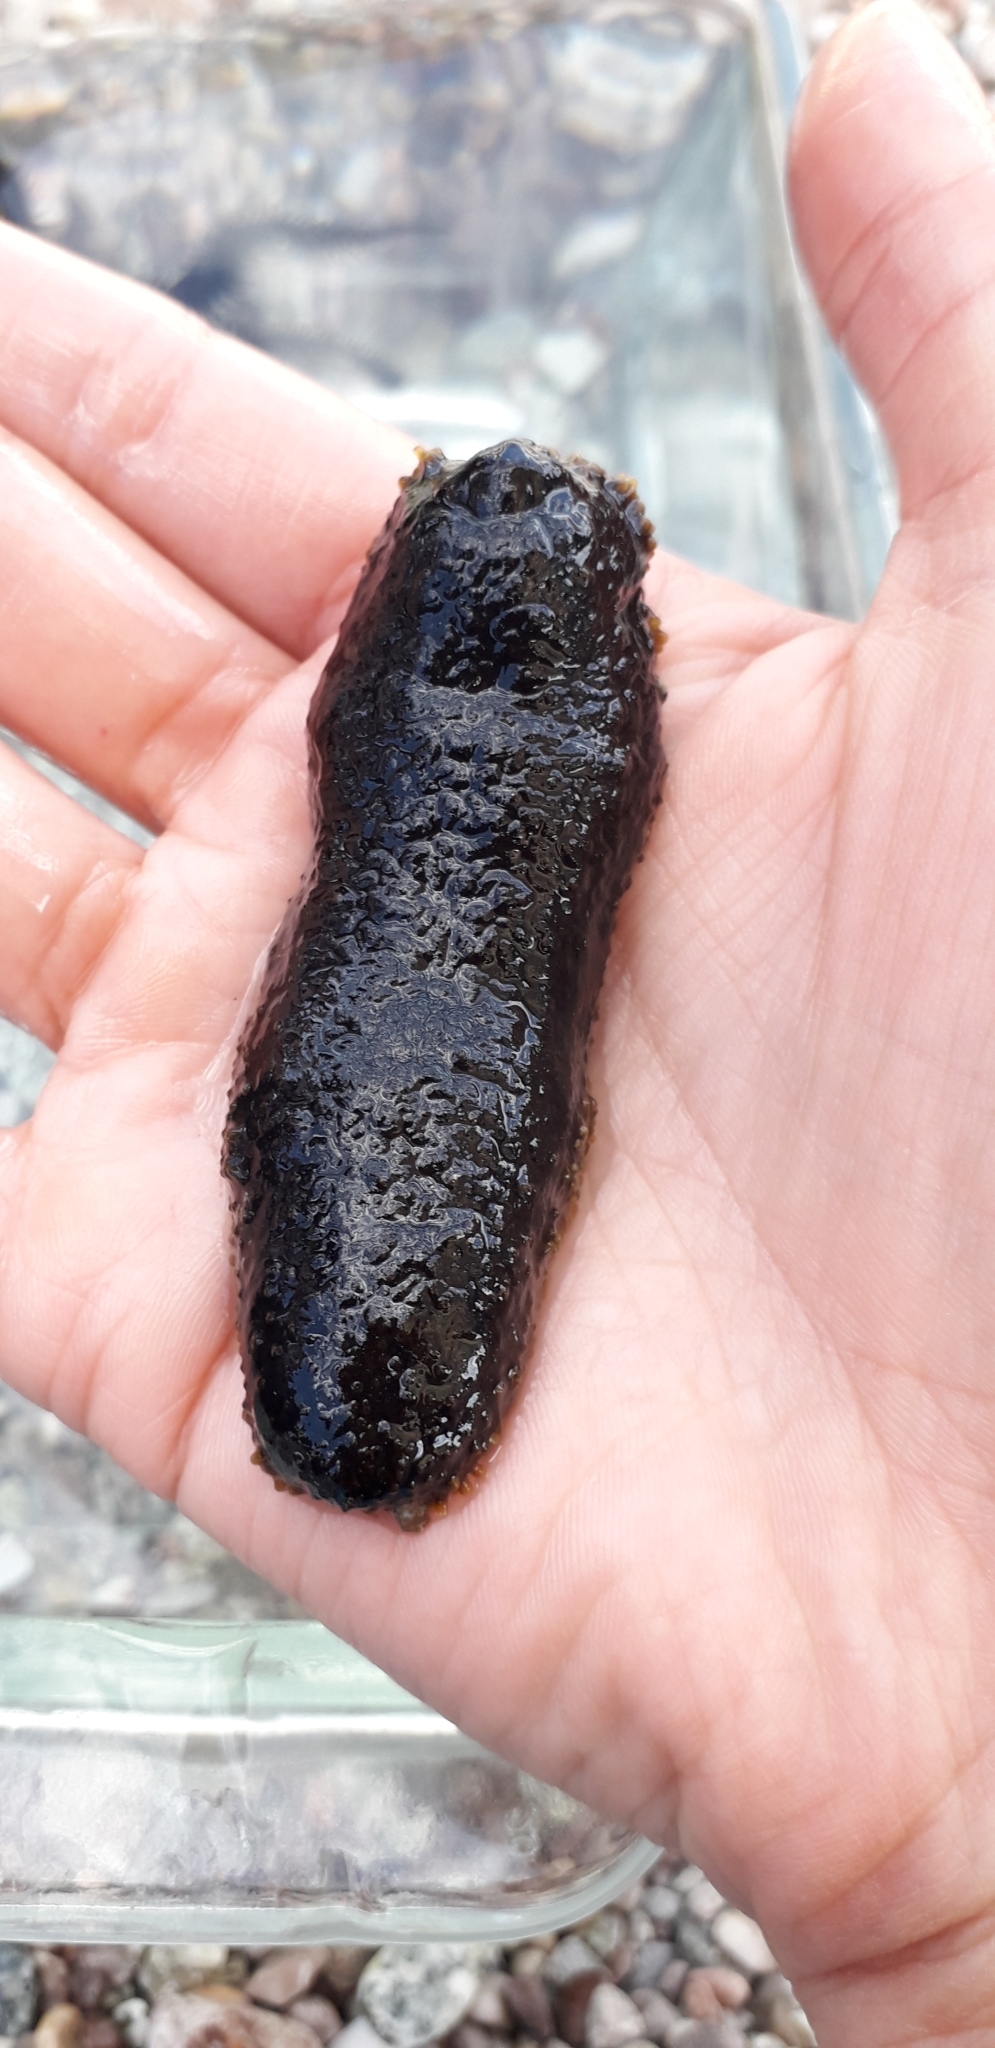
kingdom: Animalia
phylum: Echinodermata
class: Holothuroidea
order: Holothuriida
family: Holothuriidae
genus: Holothuria
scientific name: Holothuria lubrica
